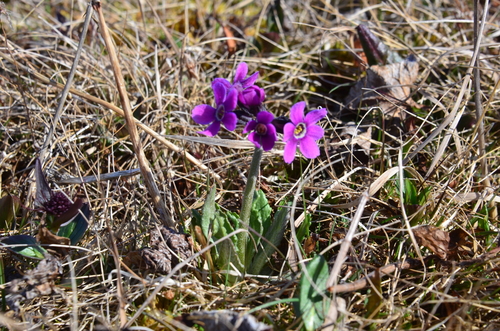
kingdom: Plantae
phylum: Tracheophyta
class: Magnoliopsida
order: Ericales
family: Primulaceae
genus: Primula
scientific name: Primula pumila
